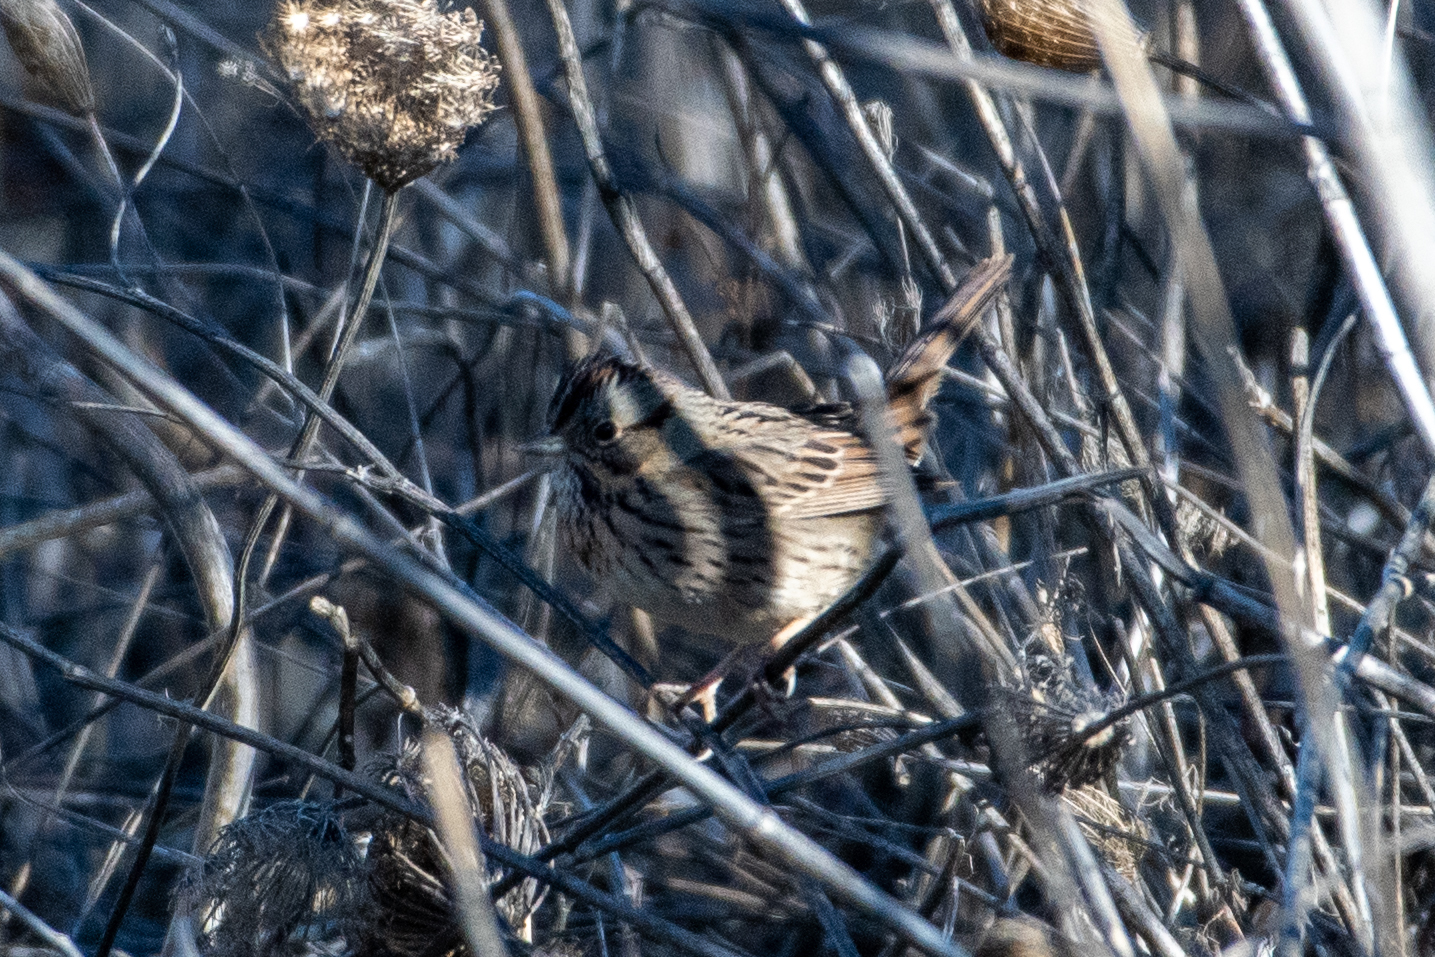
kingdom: Animalia
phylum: Chordata
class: Aves
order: Passeriformes
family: Passerellidae
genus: Melospiza
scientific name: Melospiza lincolnii
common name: Lincoln's sparrow
